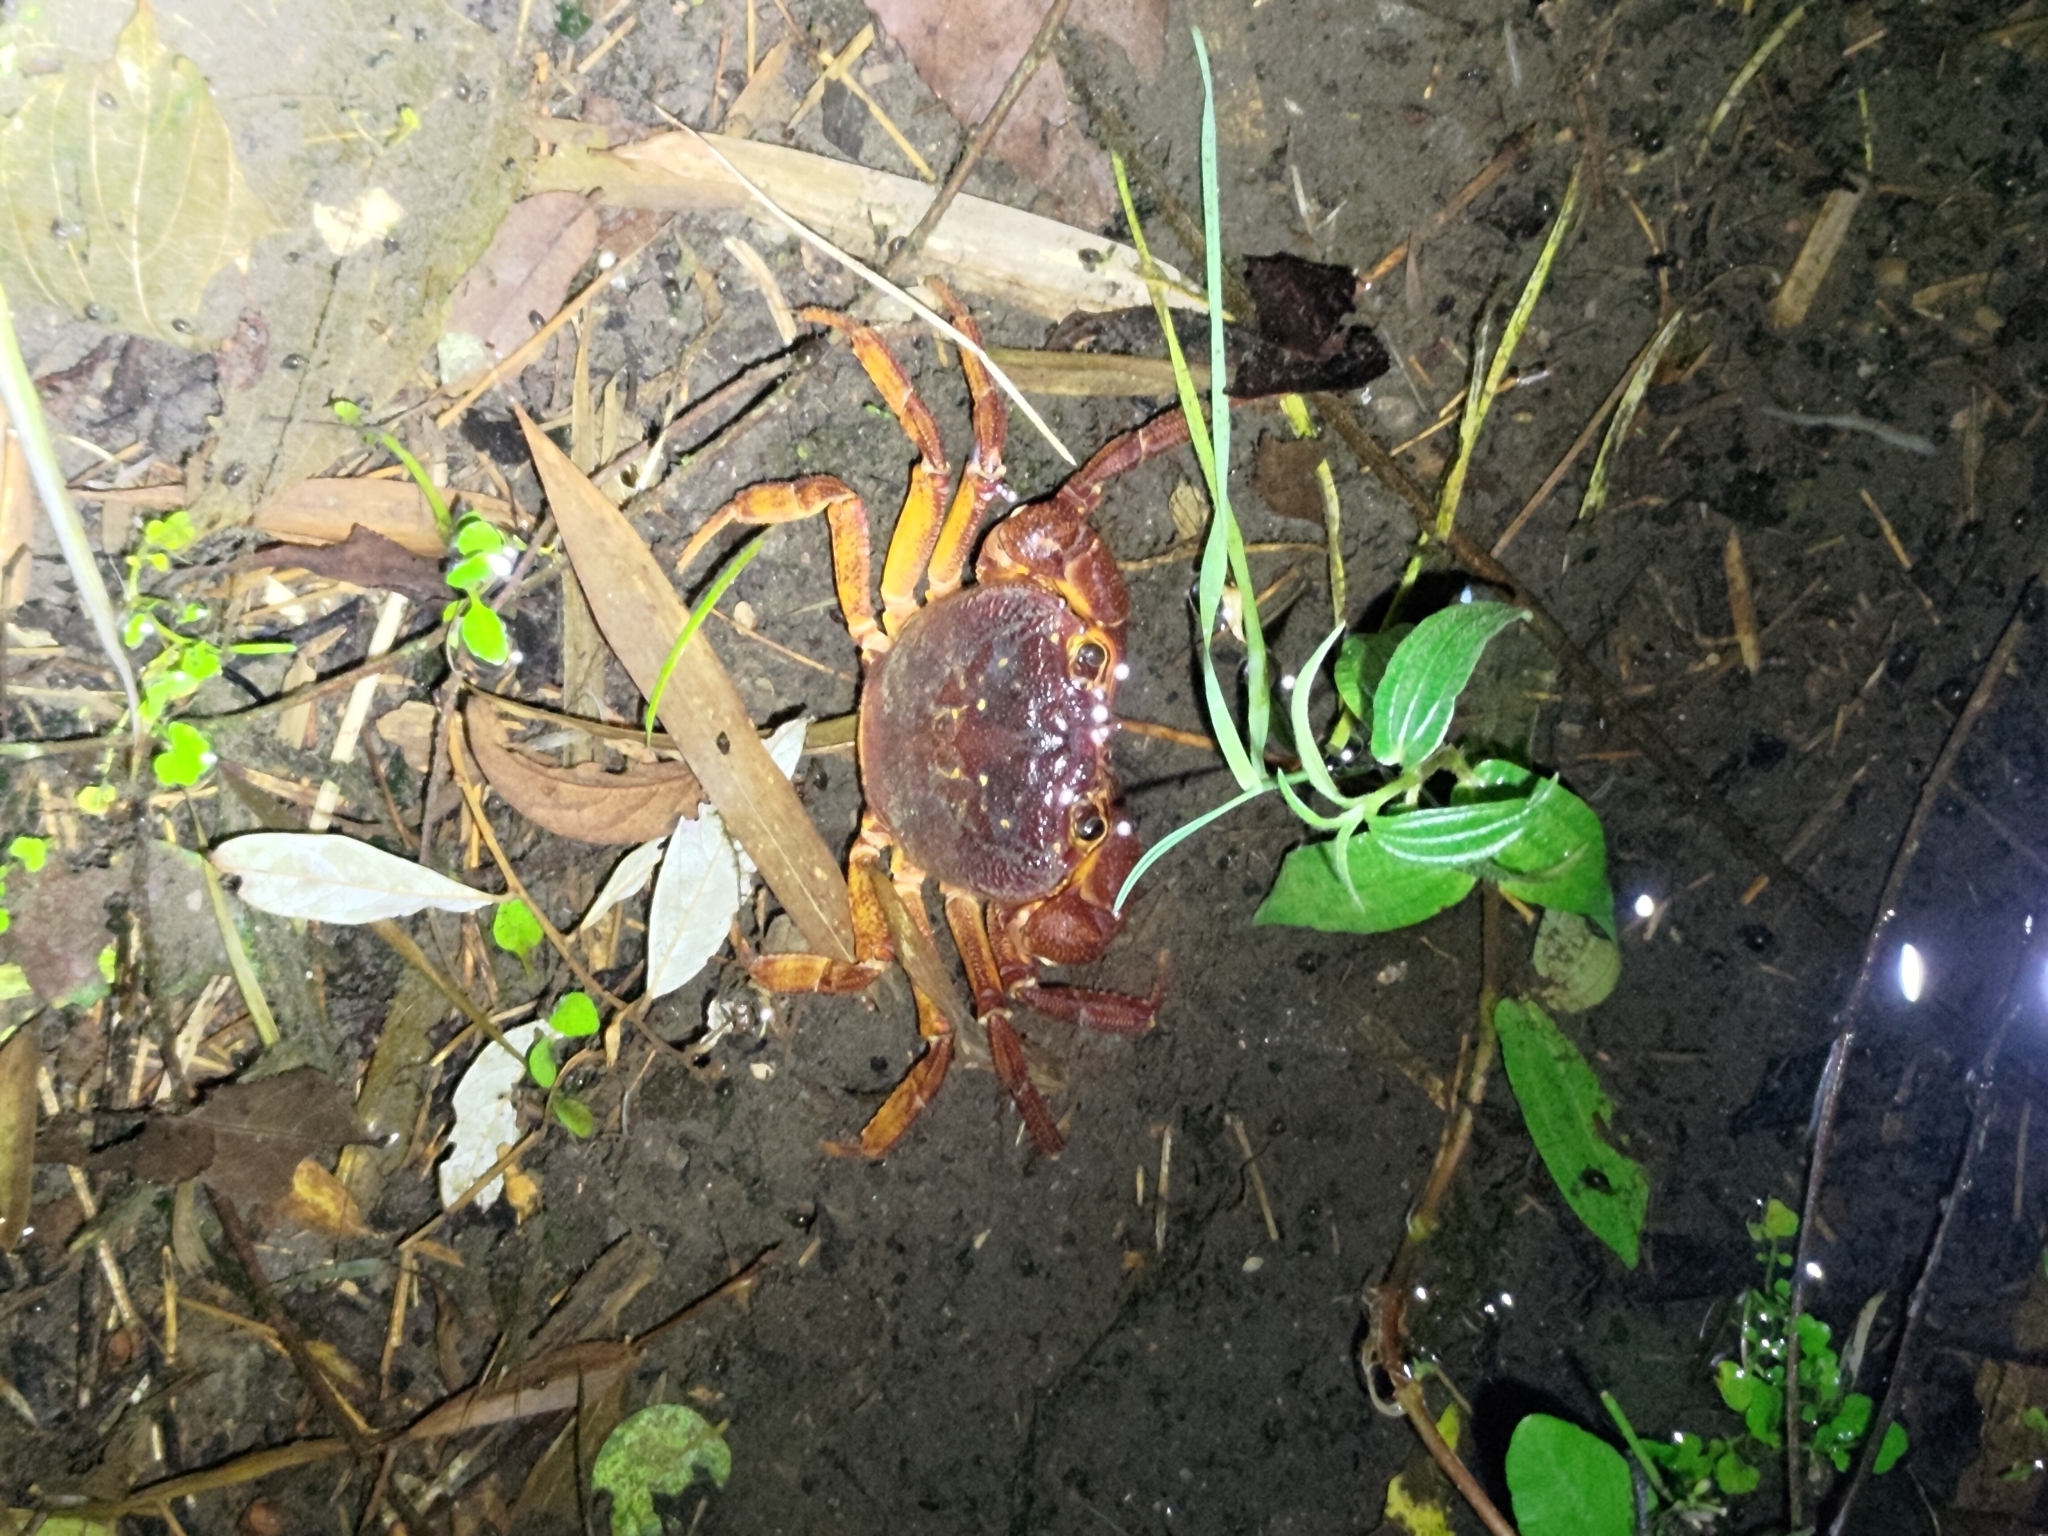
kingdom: Animalia
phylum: Arthropoda
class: Malacostraca
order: Decapoda
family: Potamidae
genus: Candidiopotamon
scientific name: Candidiopotamon rathbuni
